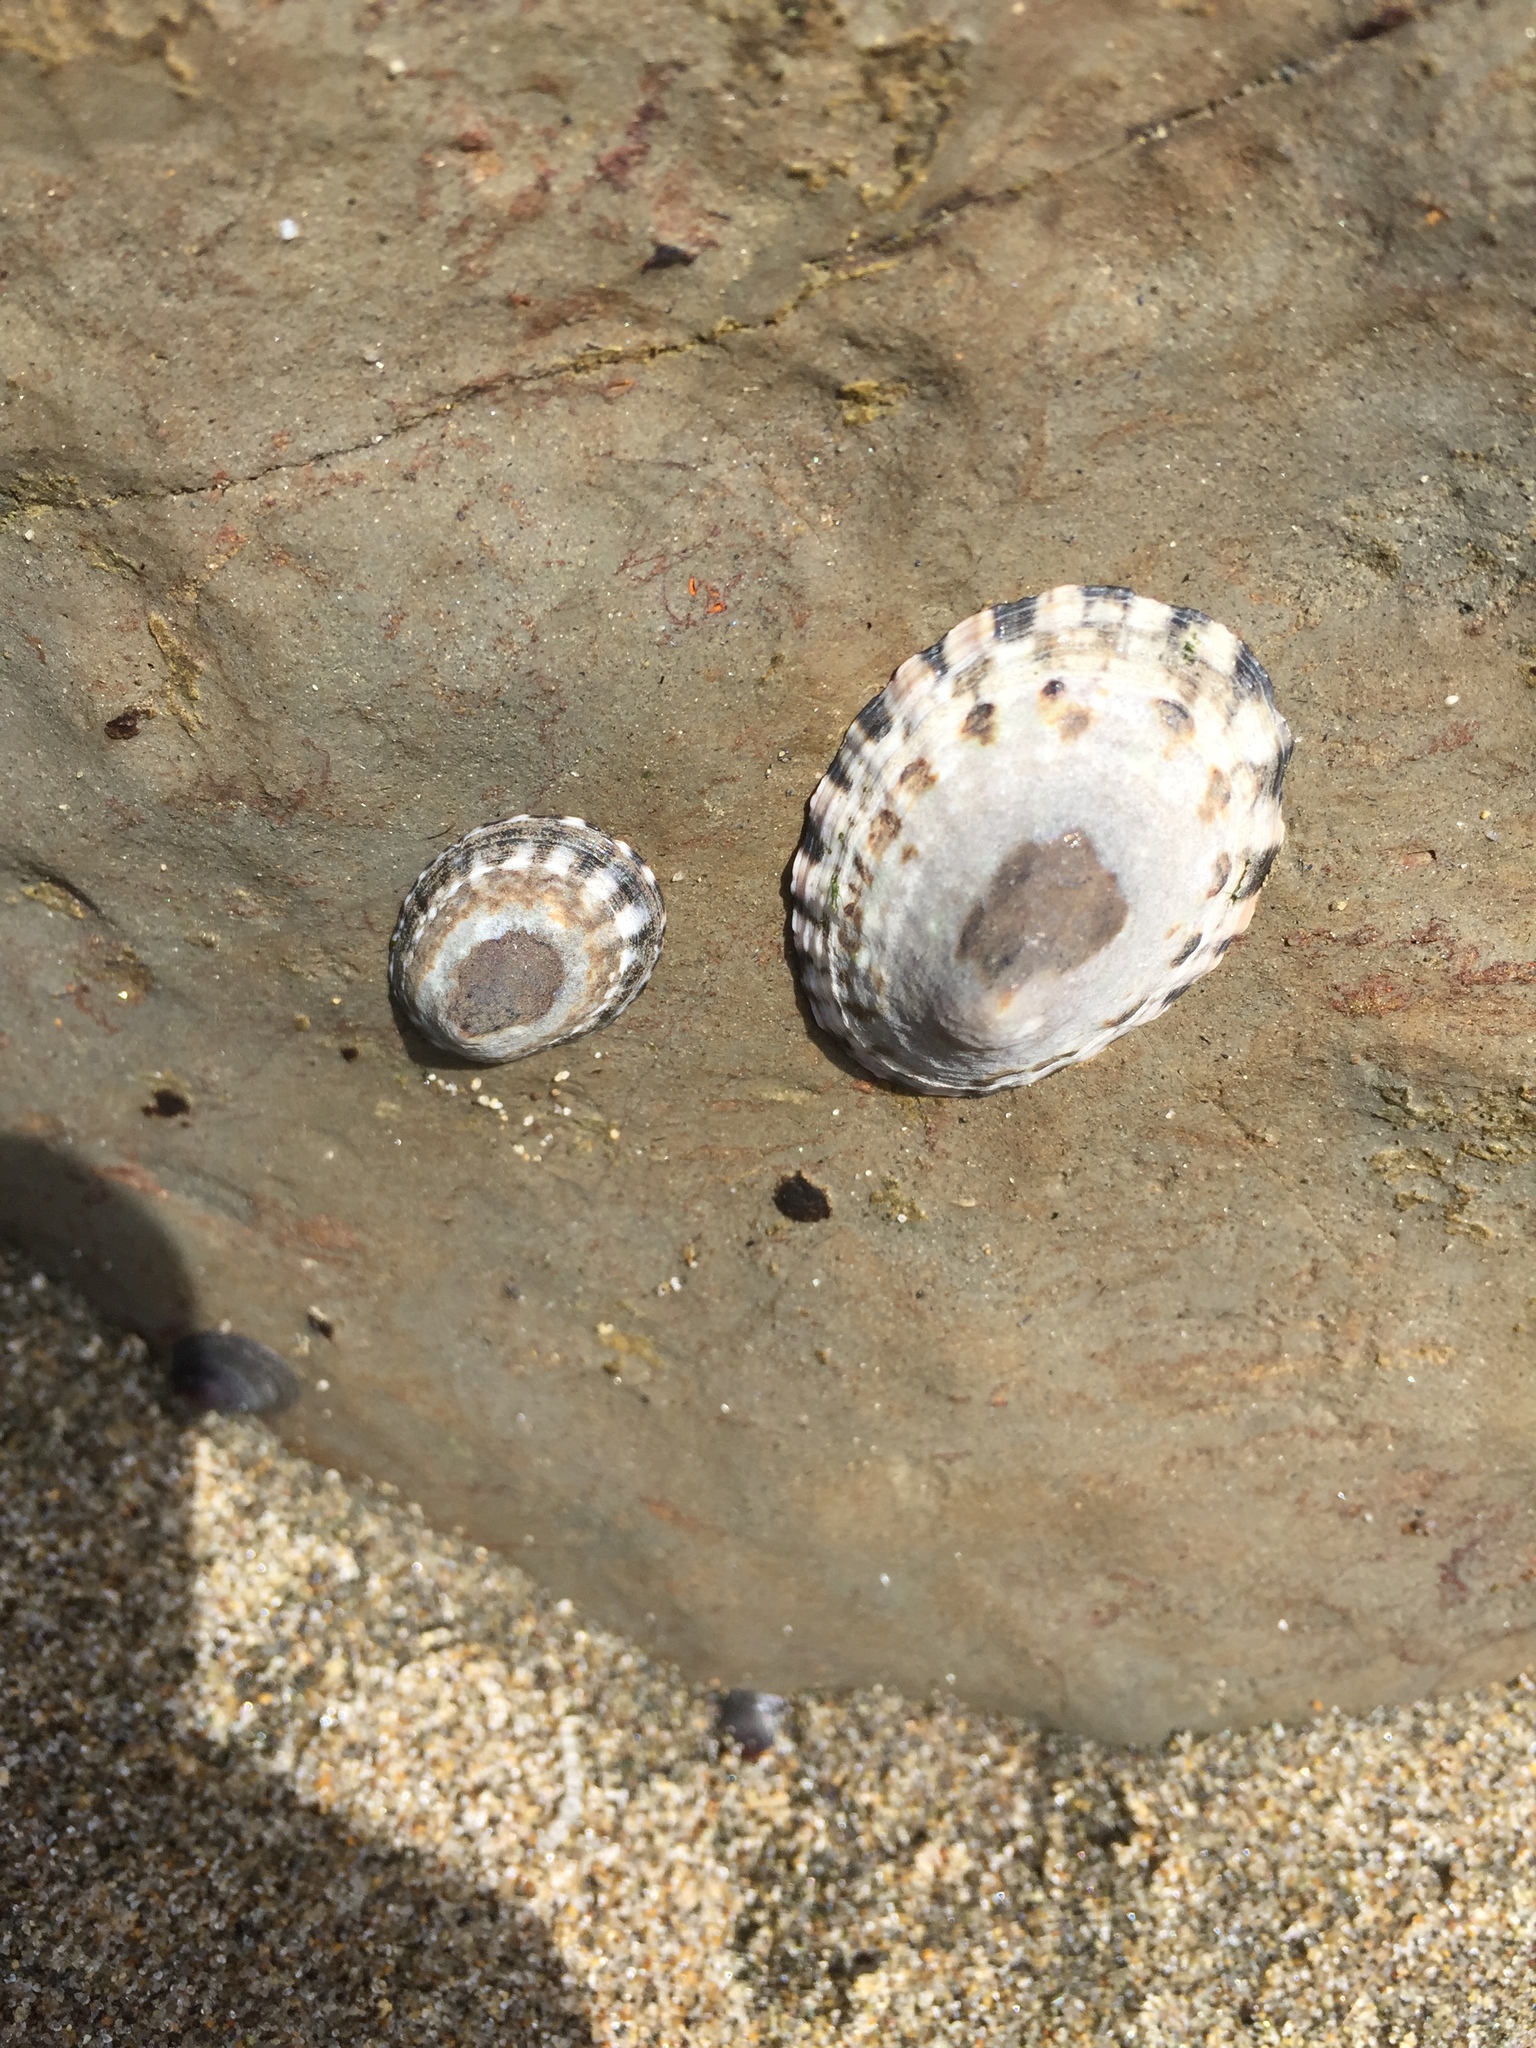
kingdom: Animalia
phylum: Mollusca
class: Gastropoda
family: Lottiidae
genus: Lottia
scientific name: Lottia gigantea
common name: Owl limpet
